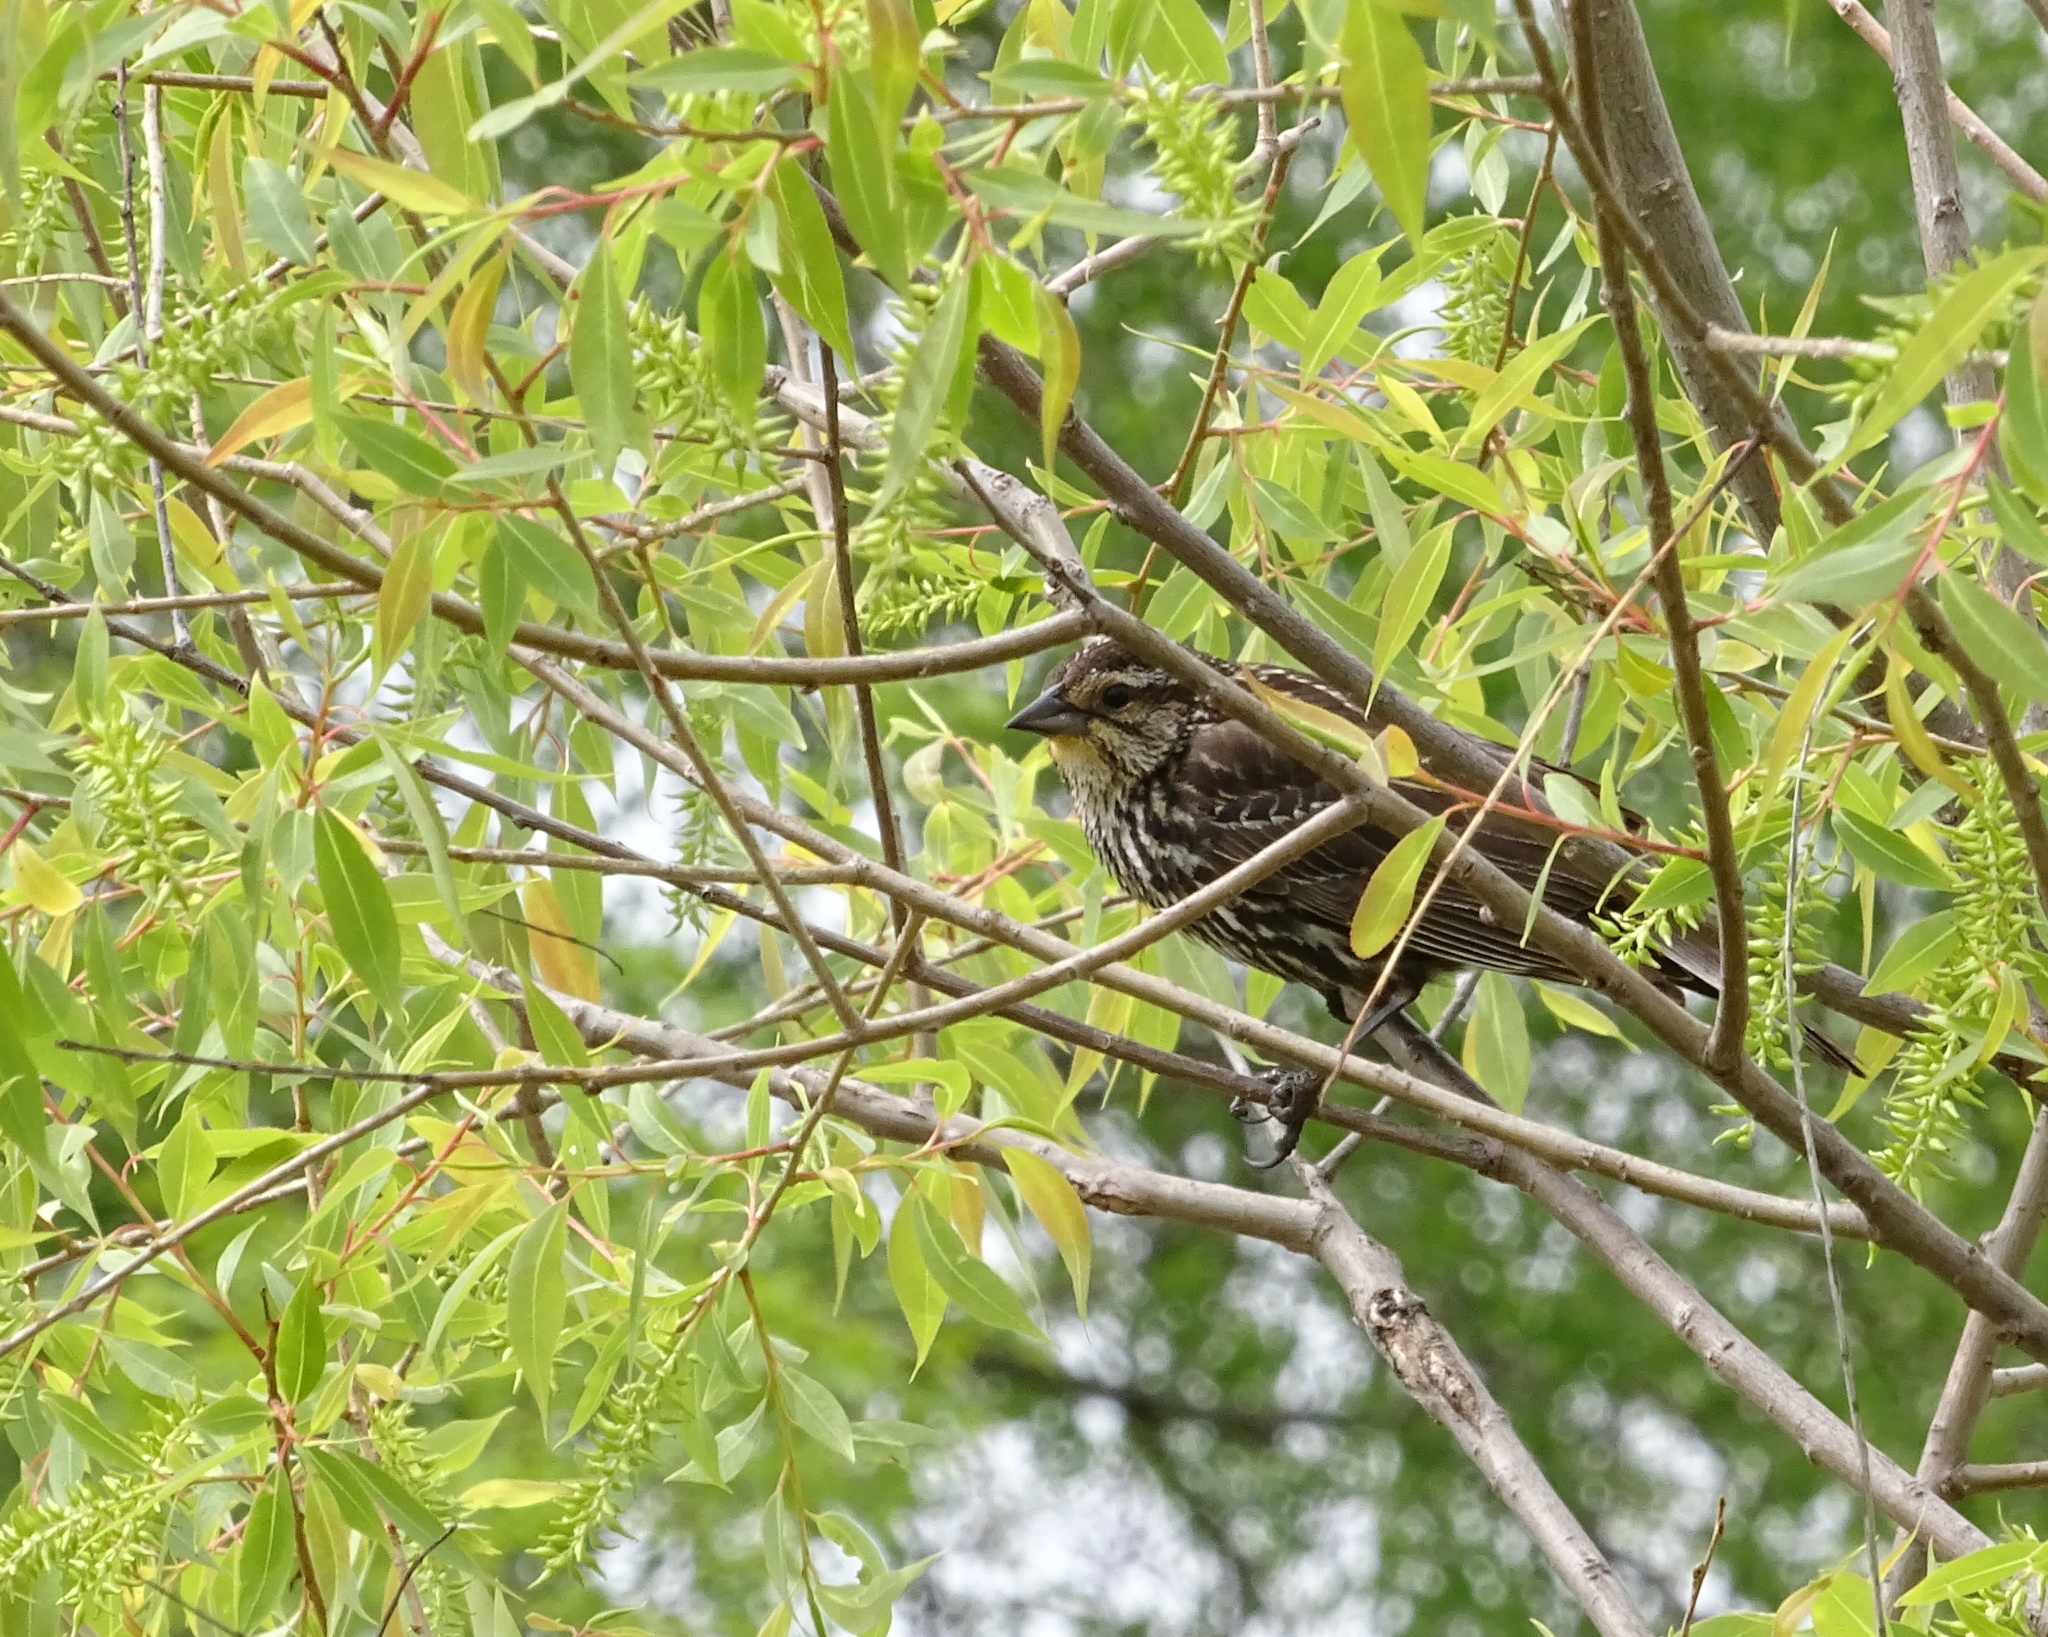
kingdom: Animalia
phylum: Chordata
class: Aves
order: Passeriformes
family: Icteridae
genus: Agelaius
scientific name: Agelaius phoeniceus
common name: Red-winged blackbird
